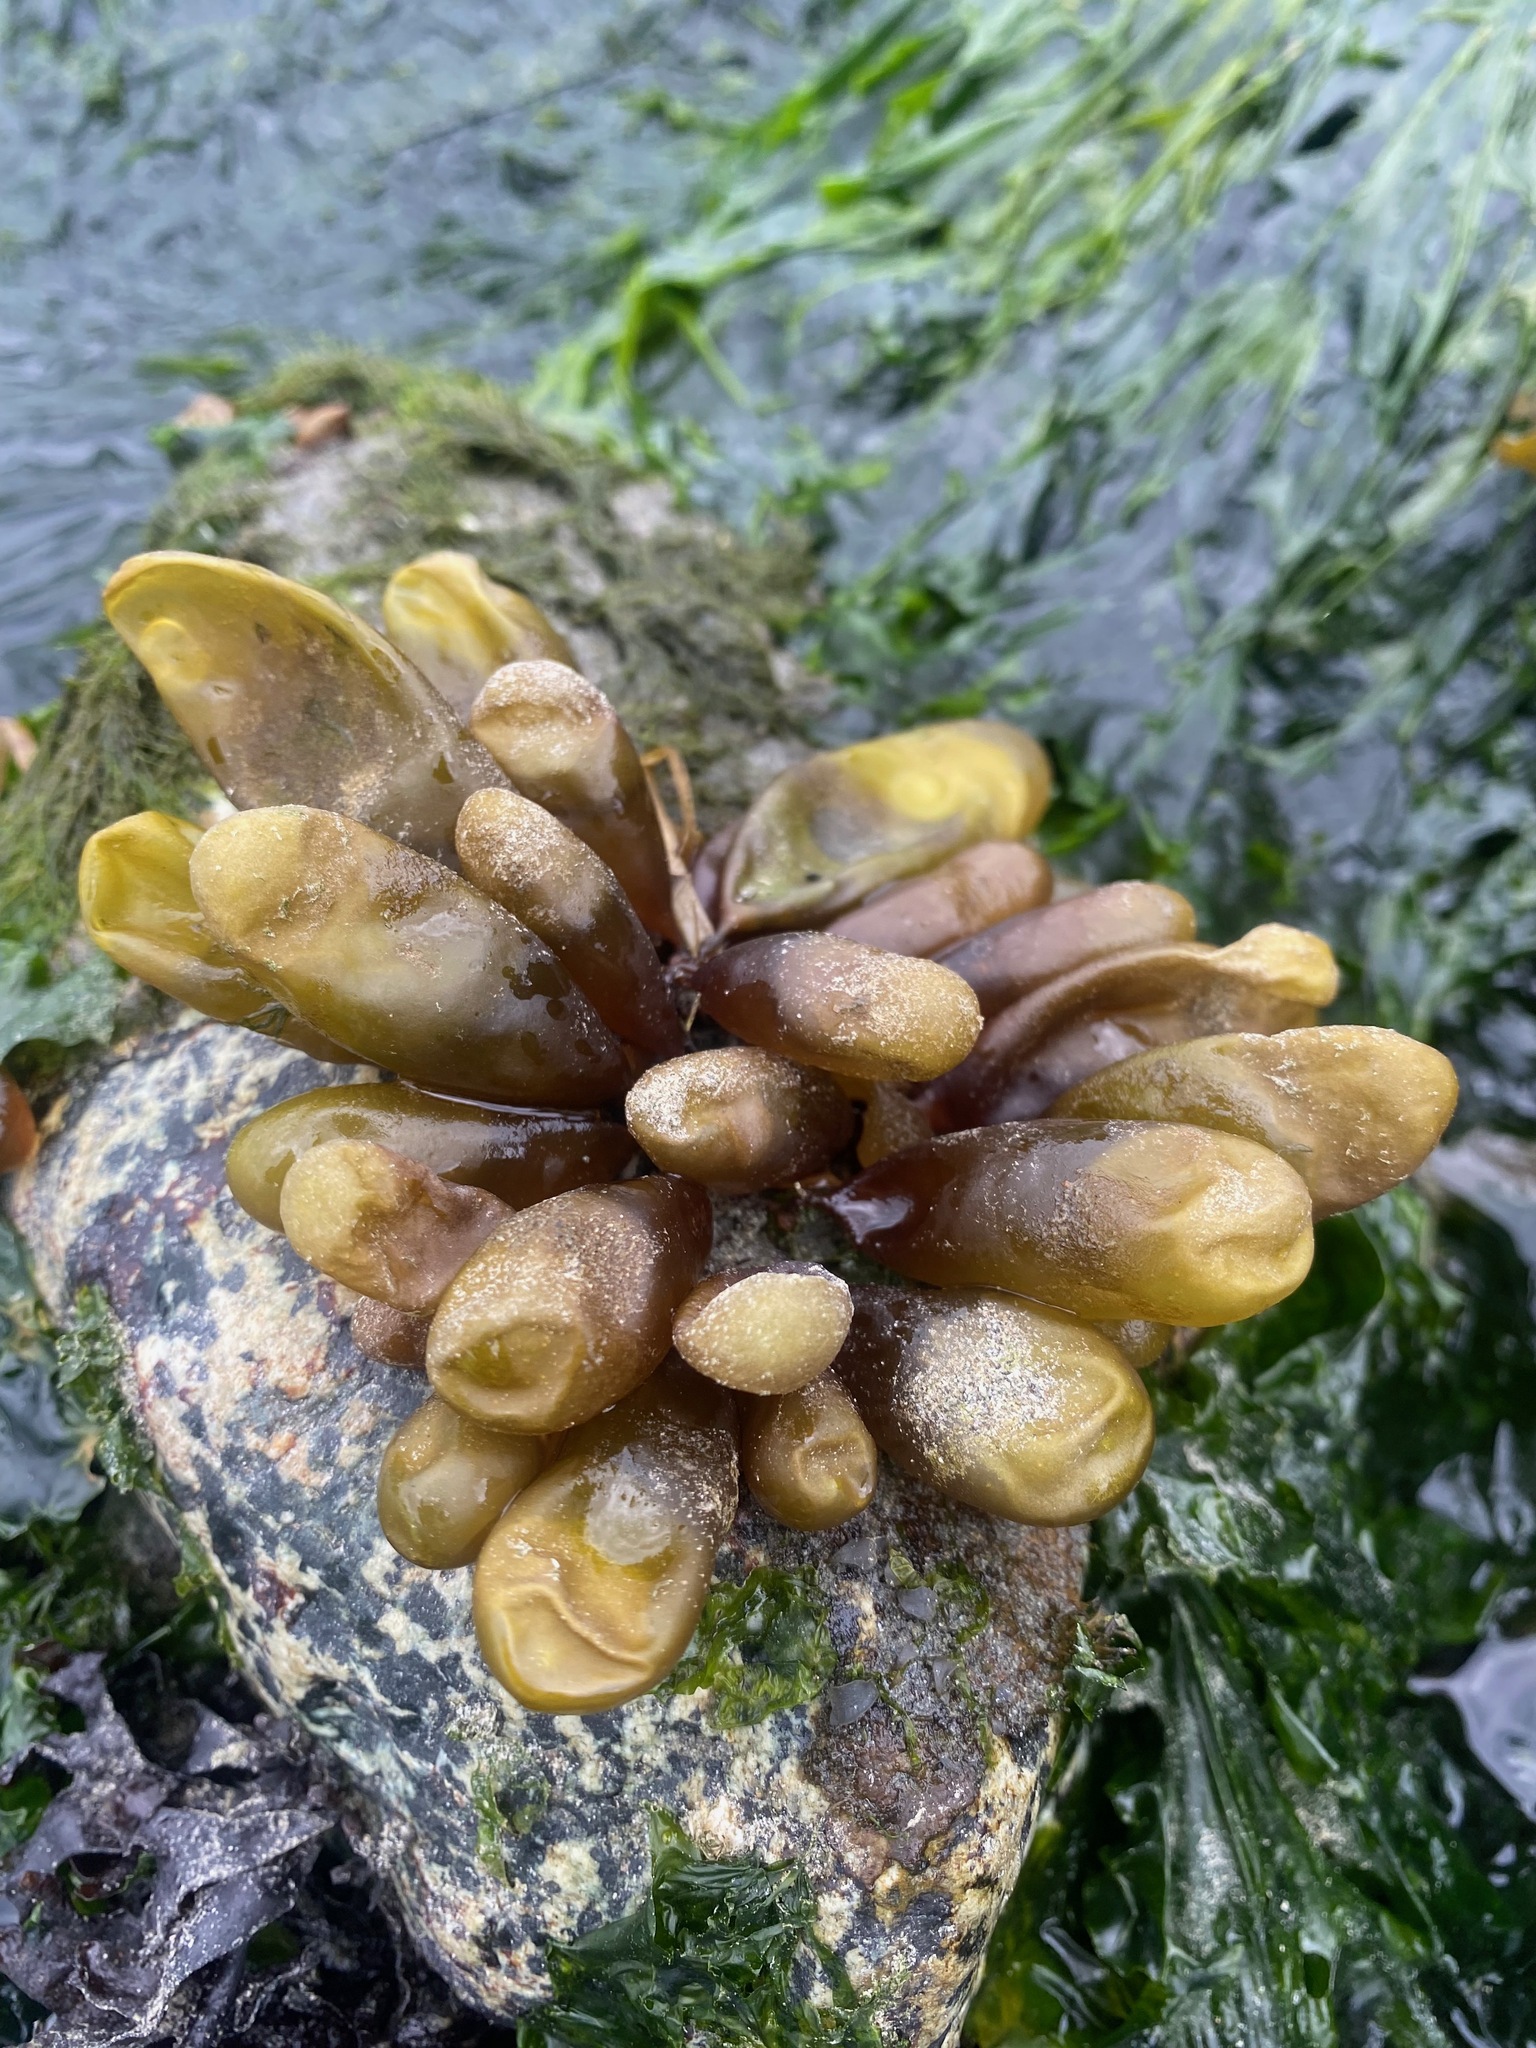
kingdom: Plantae
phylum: Rhodophyta
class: Florideophyceae
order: Palmariales
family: Palmariaceae
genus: Halosaccion
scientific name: Halosaccion glandiforme
